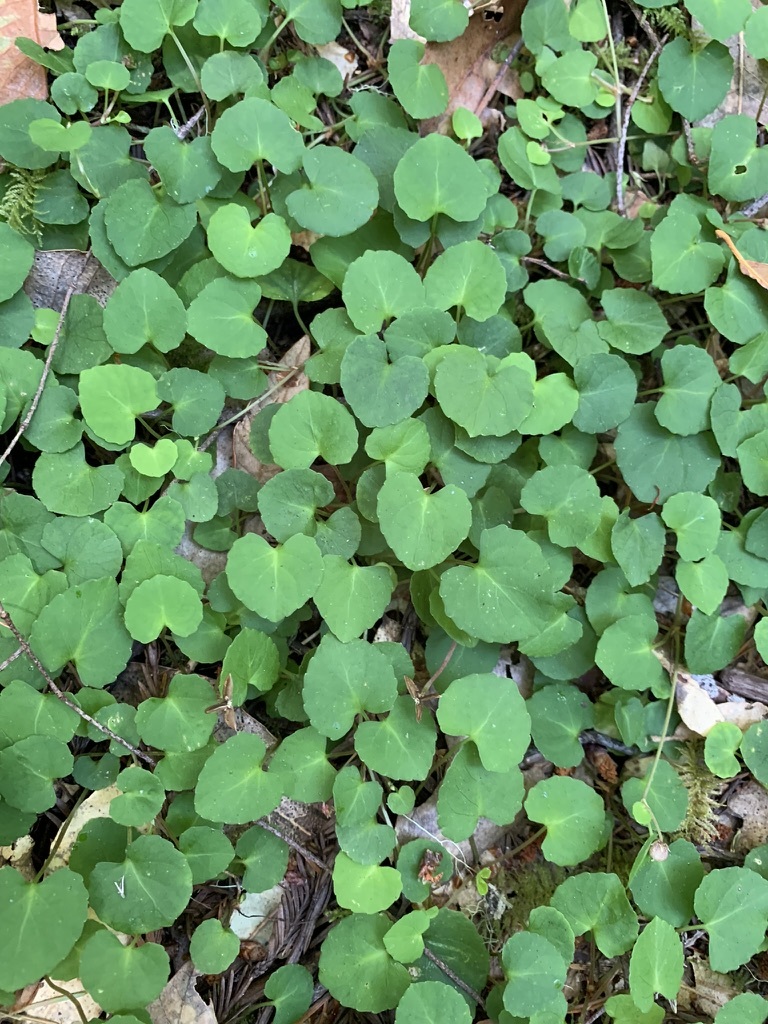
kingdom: Plantae
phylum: Tracheophyta
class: Magnoliopsida
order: Malpighiales
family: Violaceae
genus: Viola
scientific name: Viola sempervirens
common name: Evergreen violet
